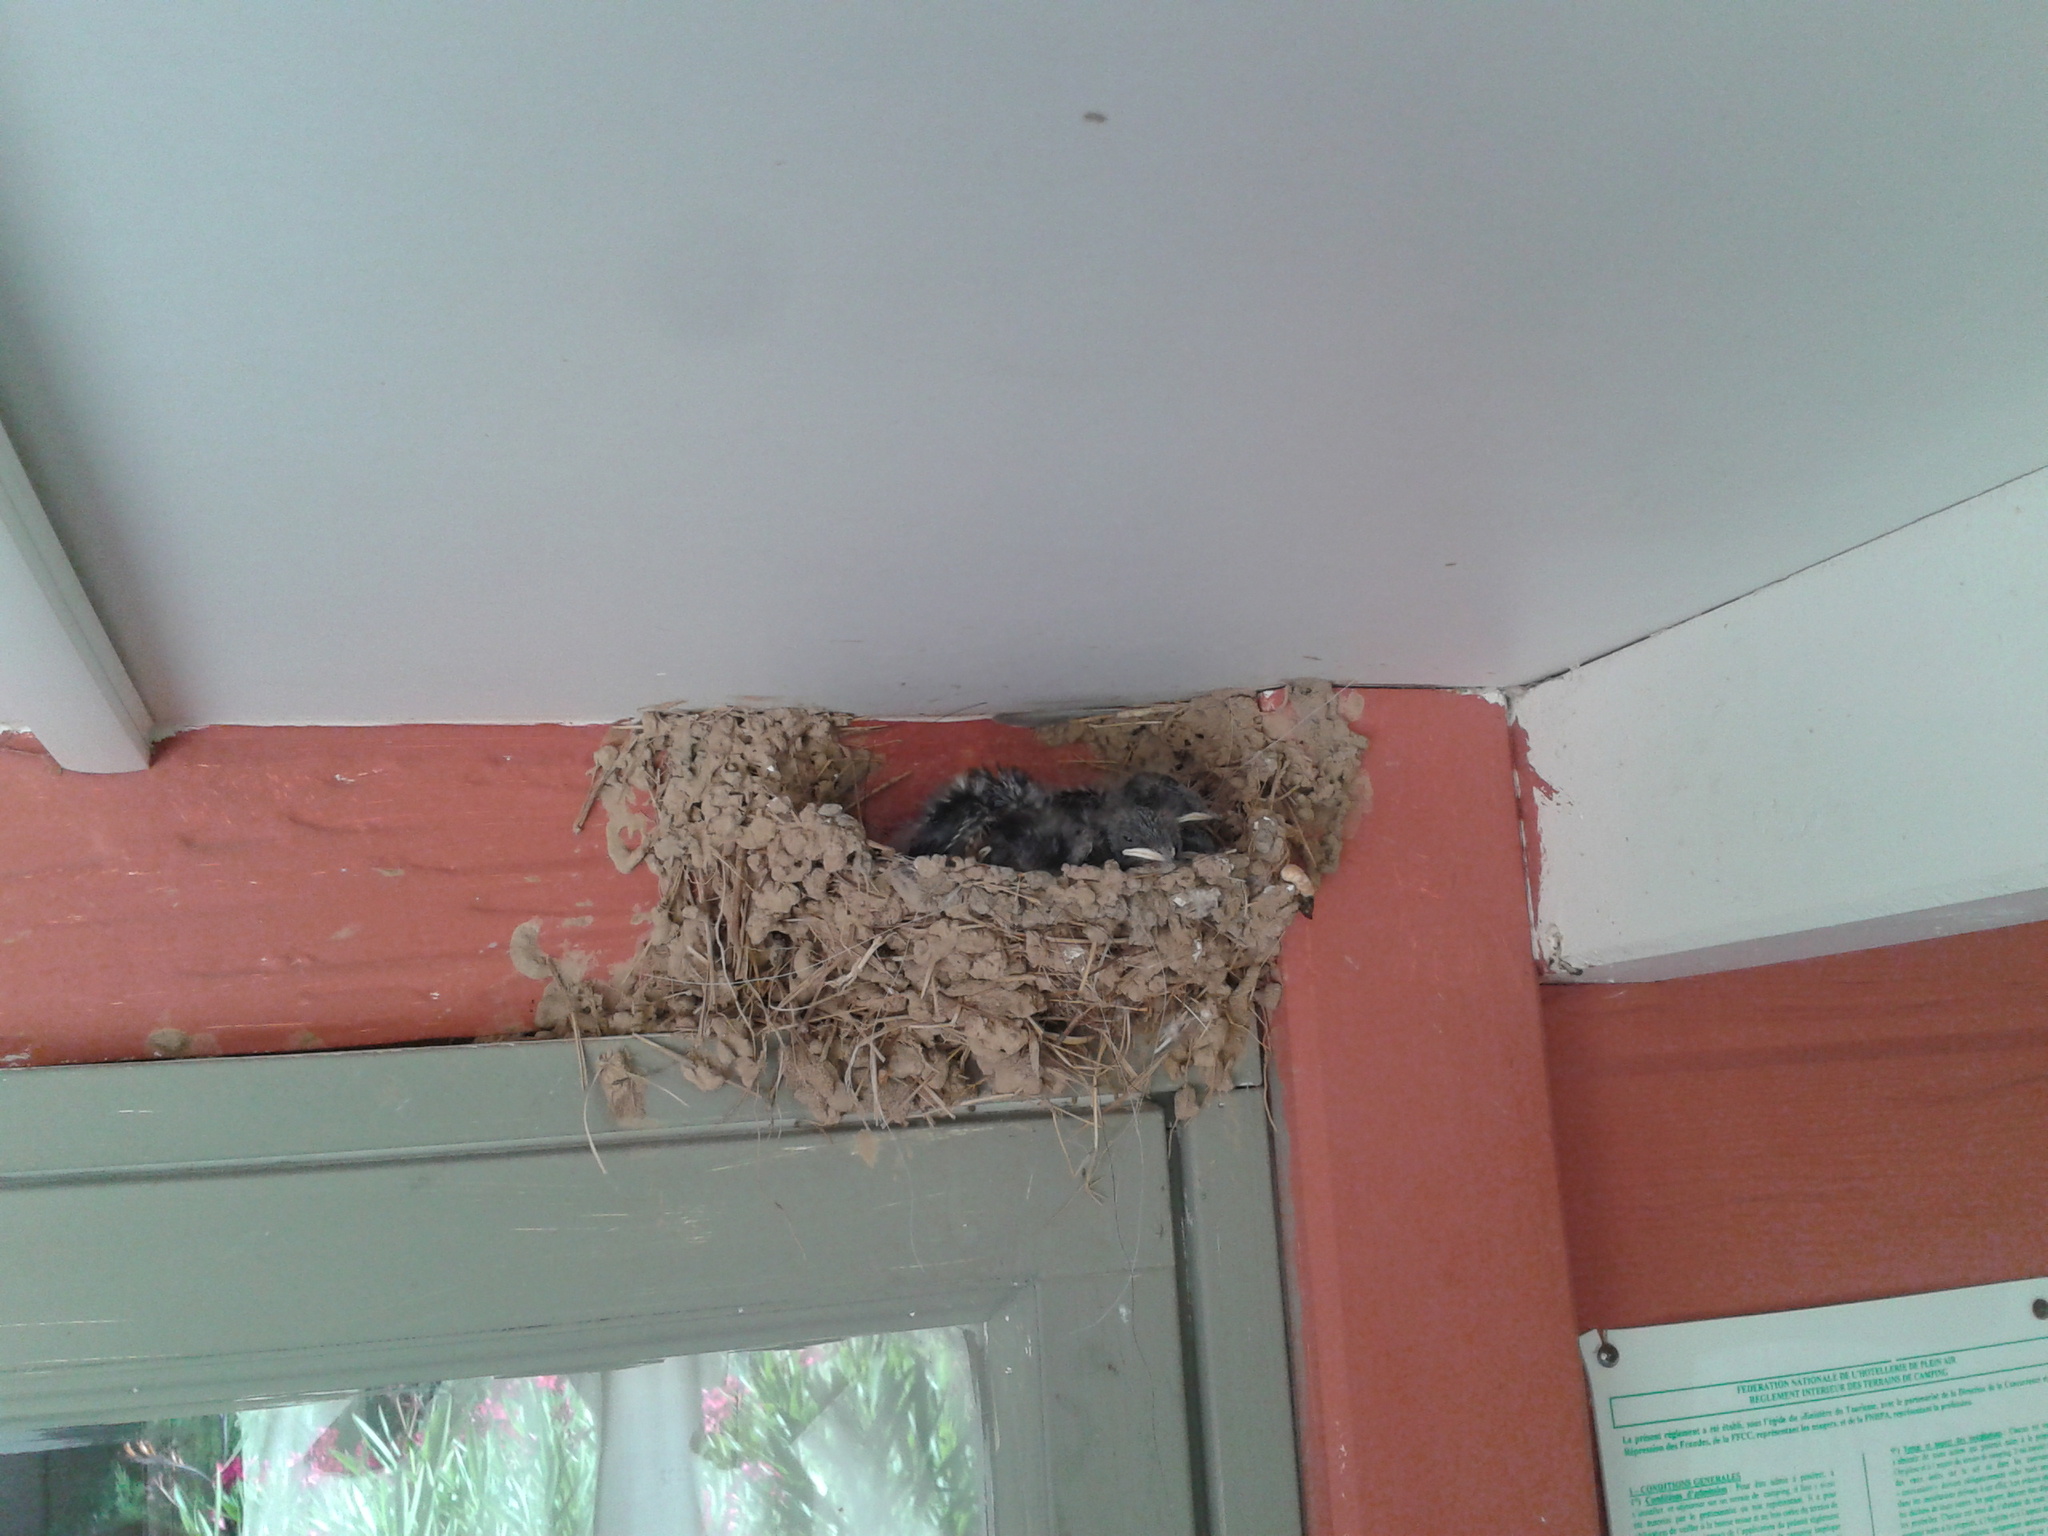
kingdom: Animalia
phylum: Chordata
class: Aves
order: Passeriformes
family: Hirundinidae
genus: Hirundo
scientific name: Hirundo rustica
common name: Barn swallow
